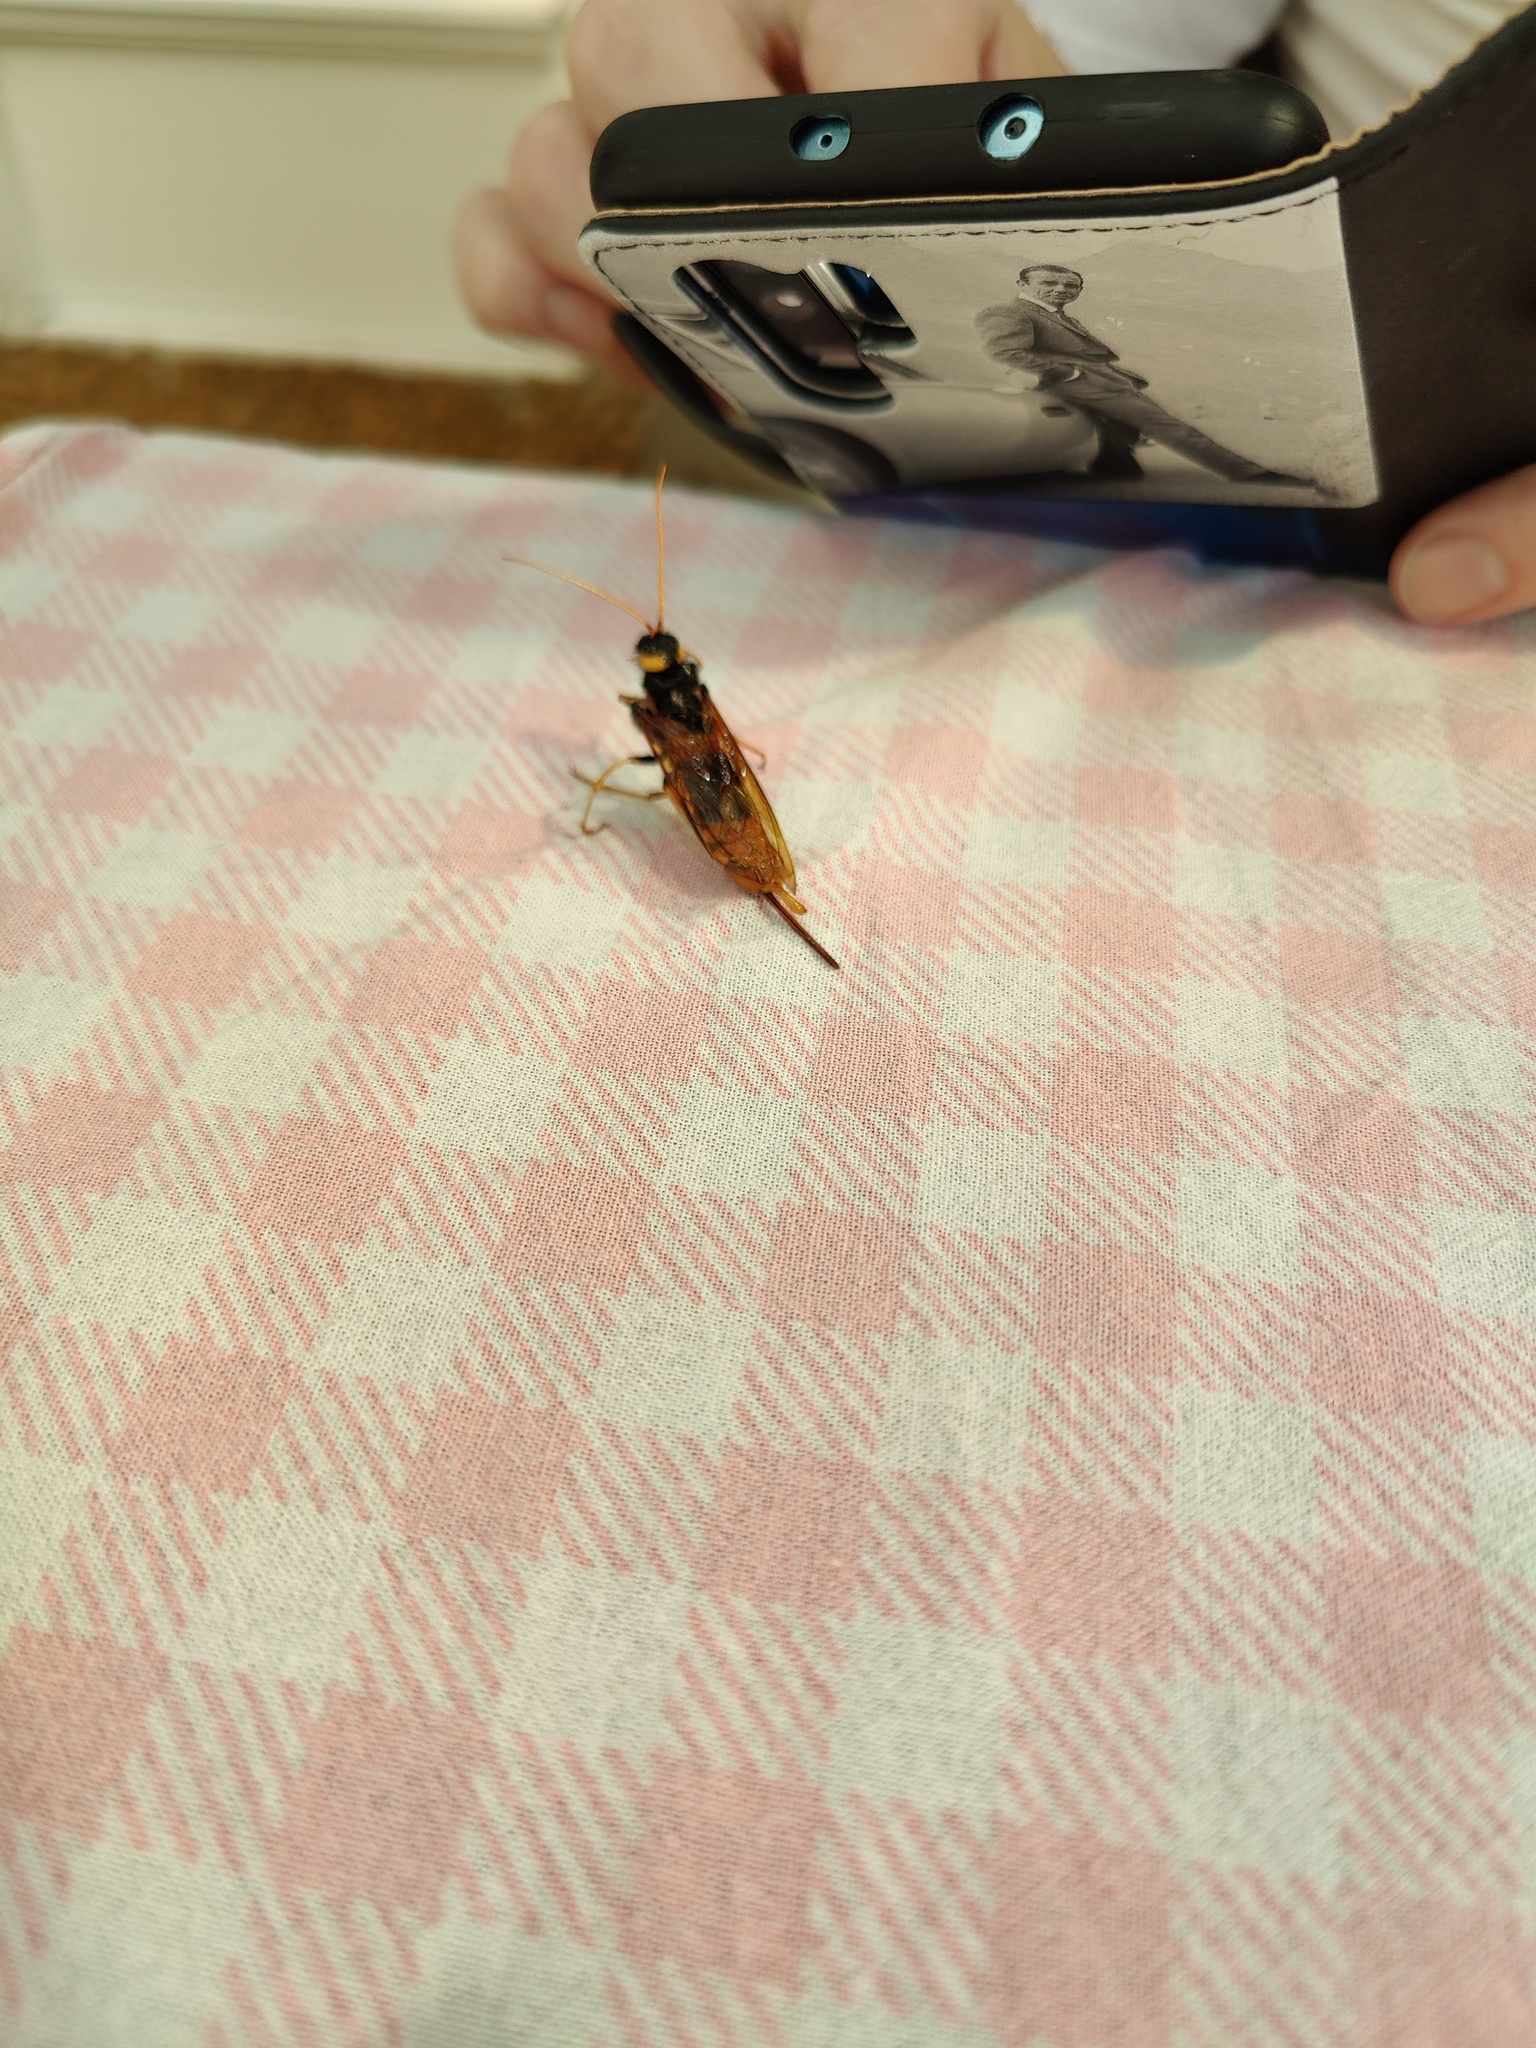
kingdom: Animalia
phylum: Arthropoda
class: Insecta
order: Hymenoptera
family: Siricidae
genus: Urocerus
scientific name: Urocerus gigas
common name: Giant woodwasp
